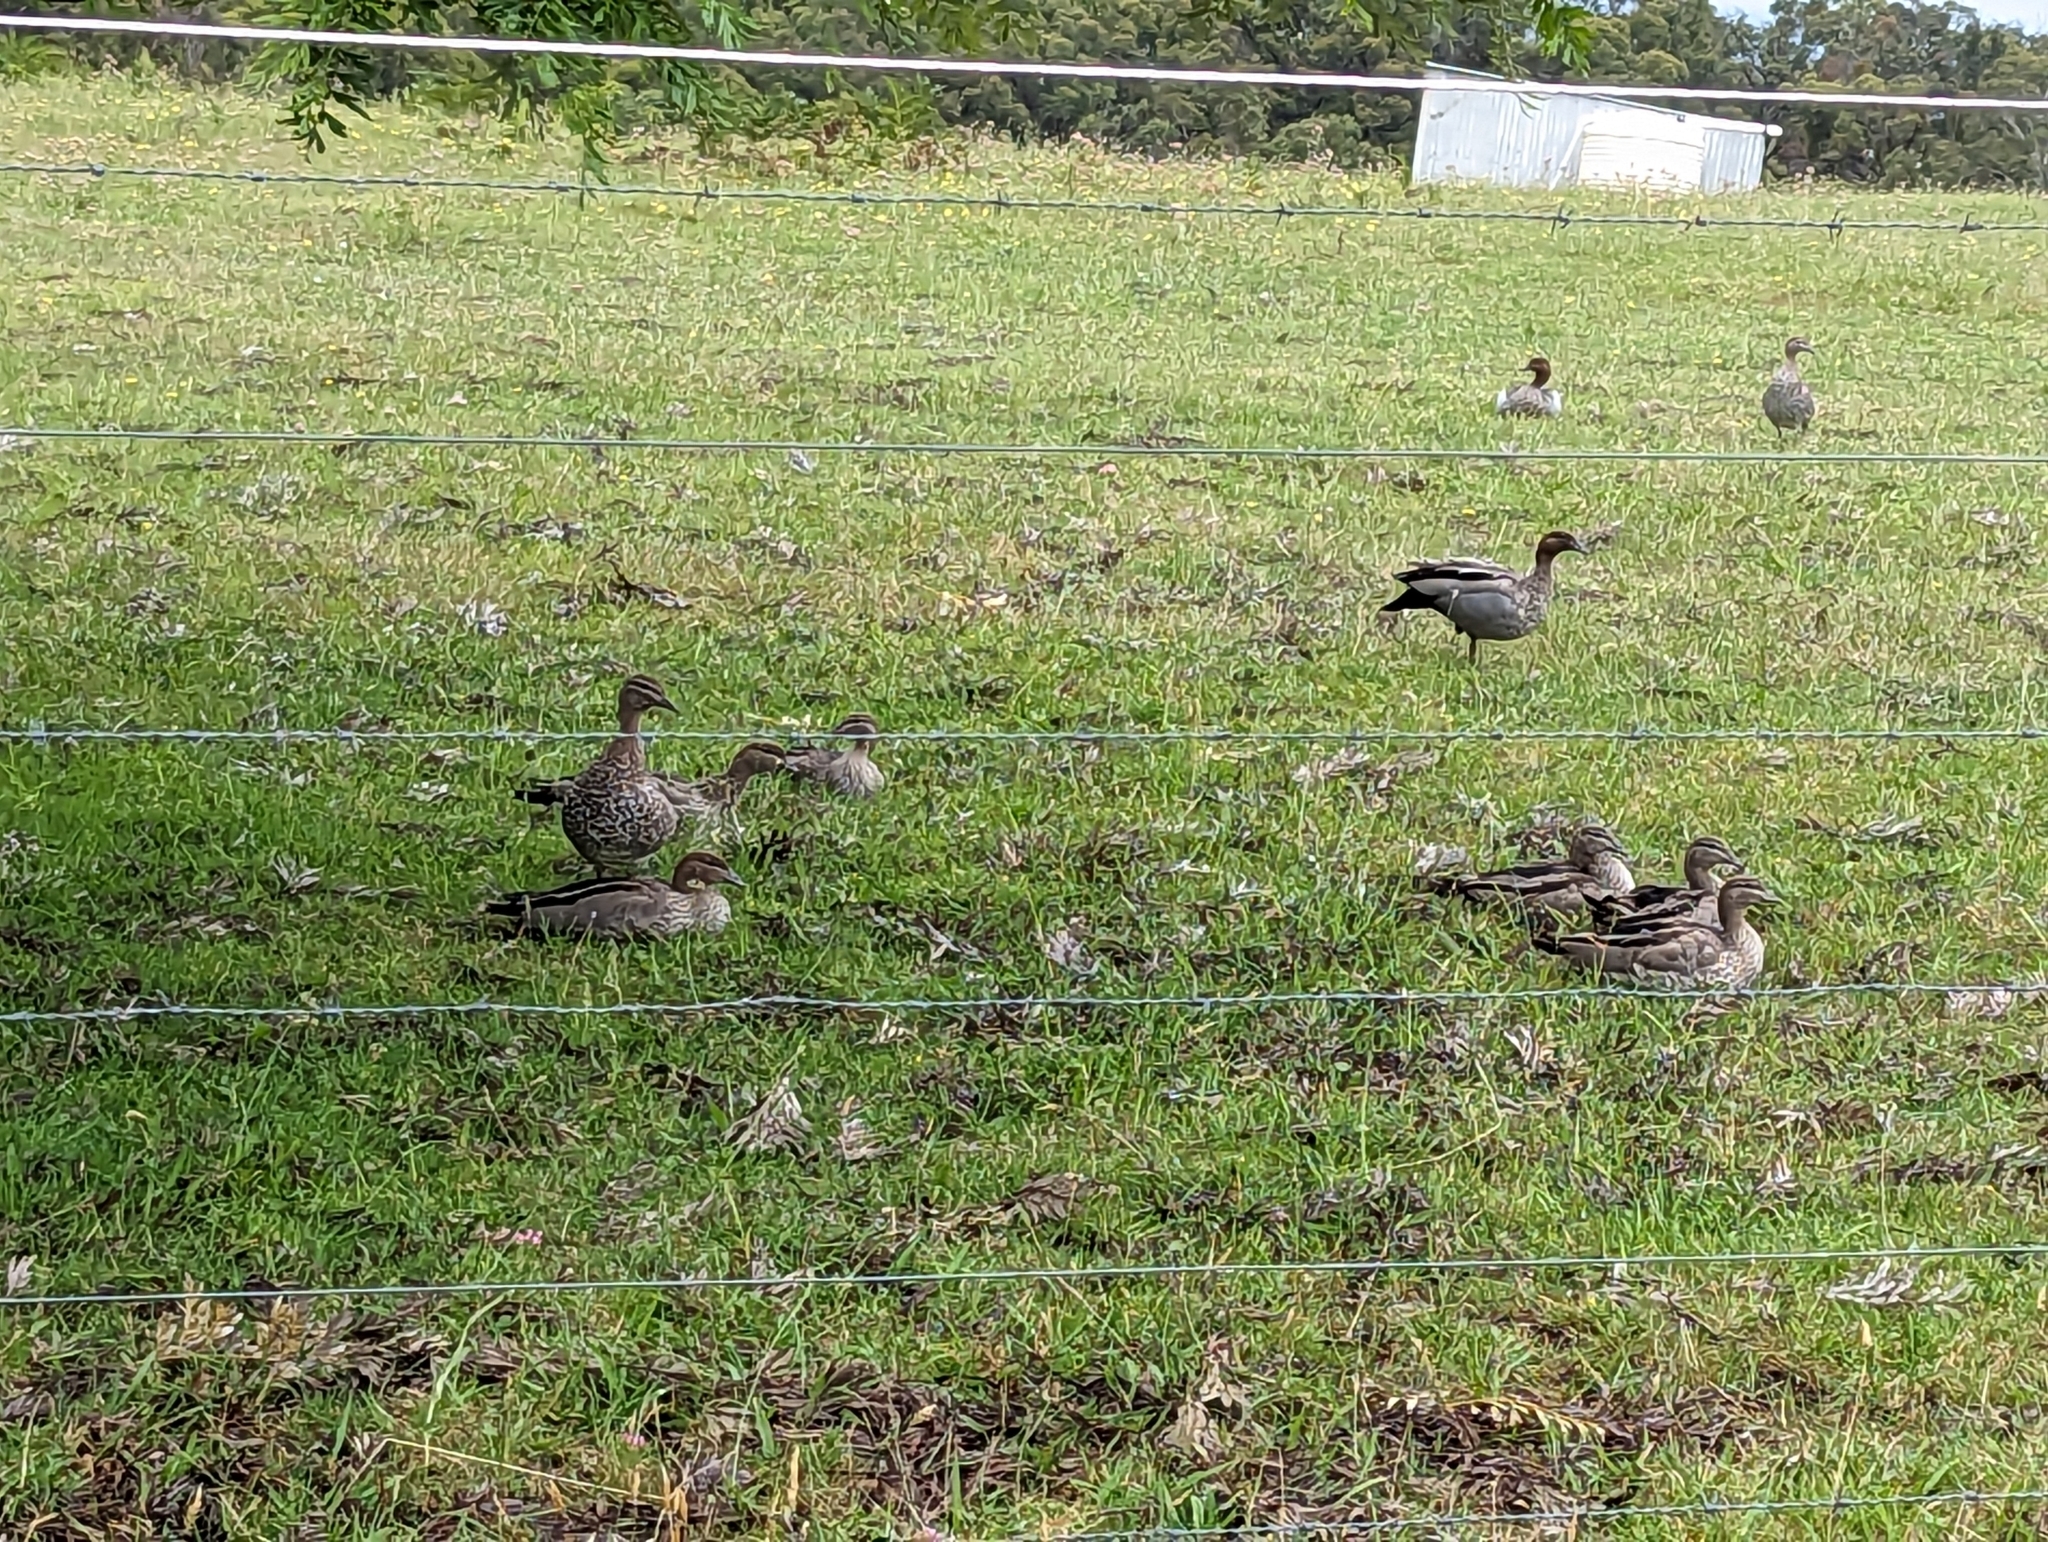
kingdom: Animalia
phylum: Chordata
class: Aves
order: Anseriformes
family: Anatidae
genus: Chenonetta
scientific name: Chenonetta jubata
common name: Maned duck
